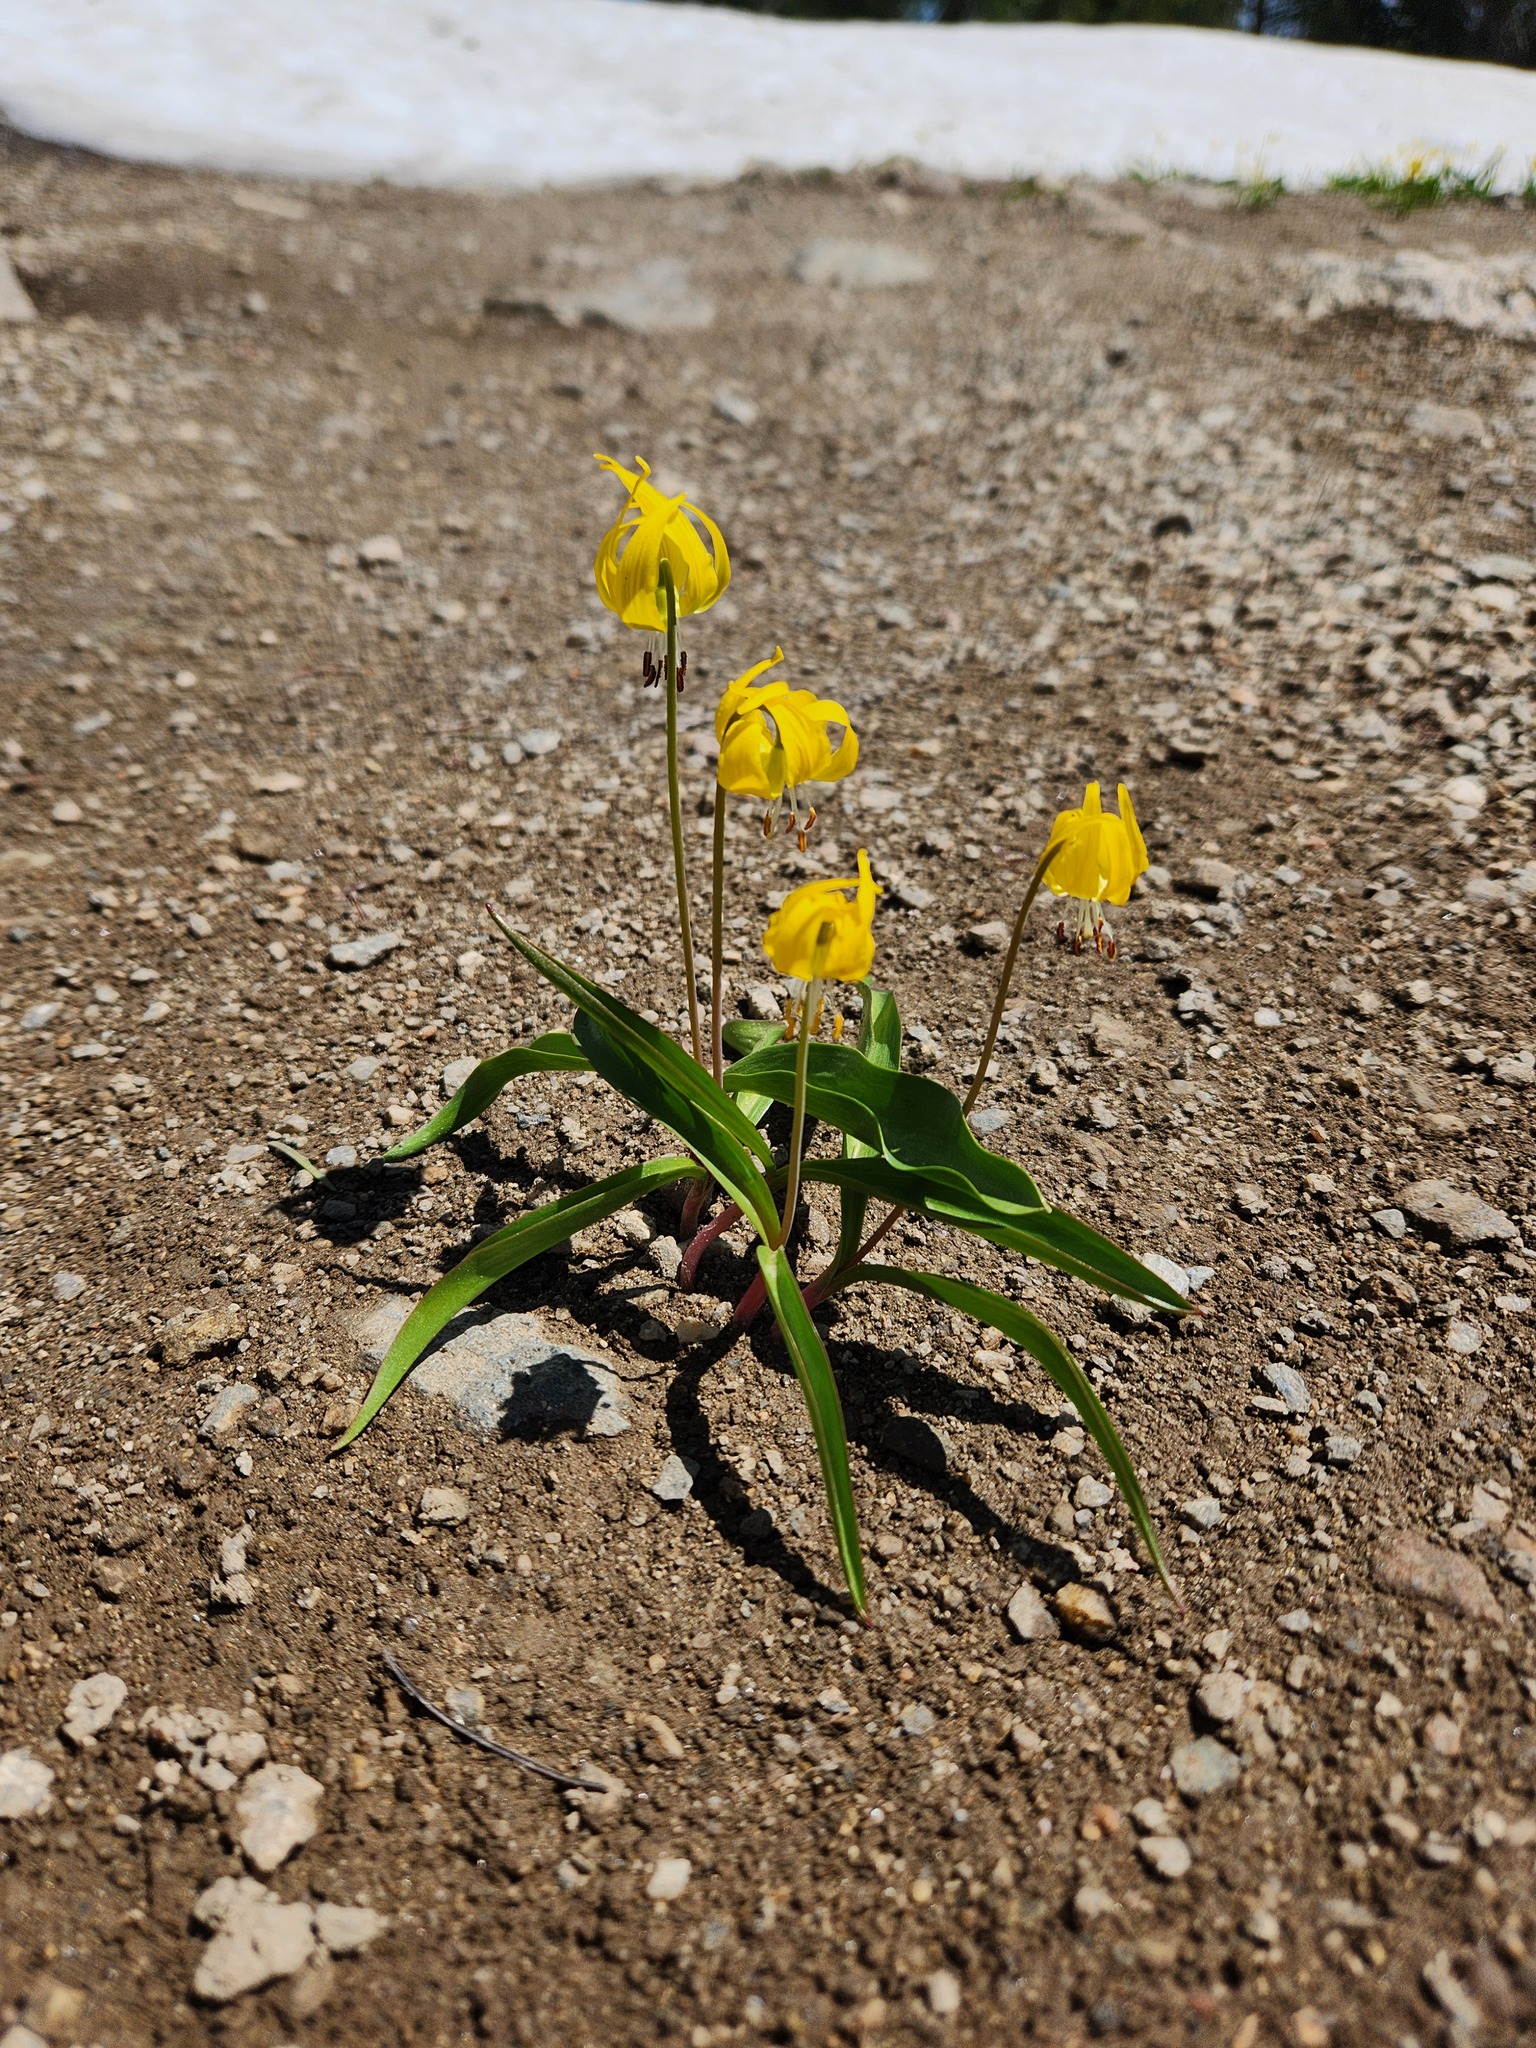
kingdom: Plantae
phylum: Tracheophyta
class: Liliopsida
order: Liliales
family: Liliaceae
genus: Erythronium
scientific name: Erythronium grandiflorum
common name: Avalanche-lily
